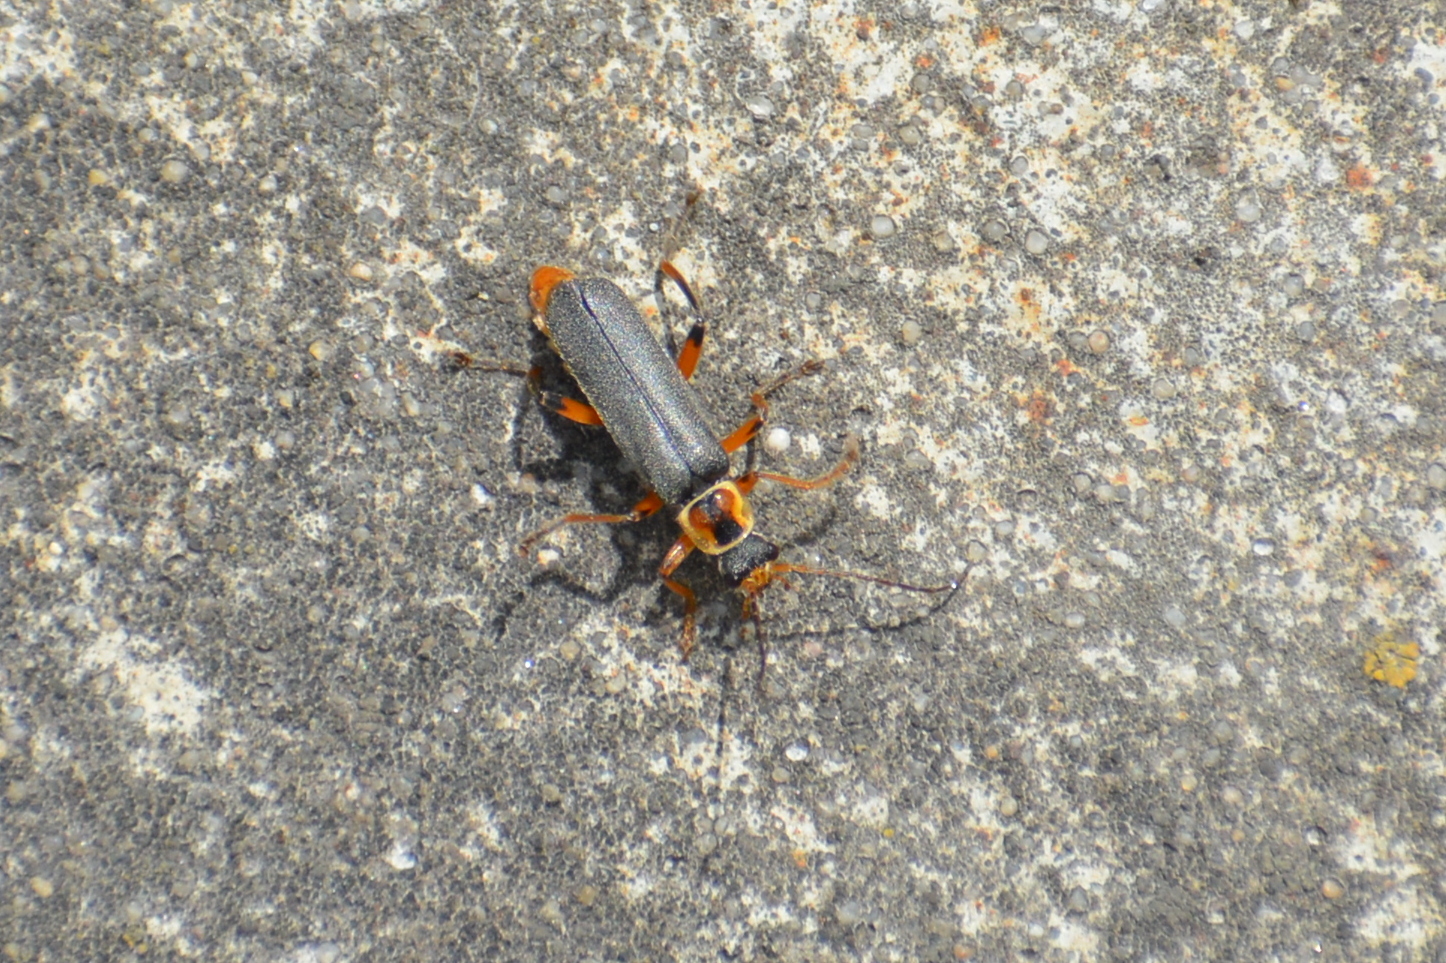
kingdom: Animalia
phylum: Arthropoda
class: Insecta
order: Coleoptera
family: Cantharidae
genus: Cantharis
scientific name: Cantharis nigricans
